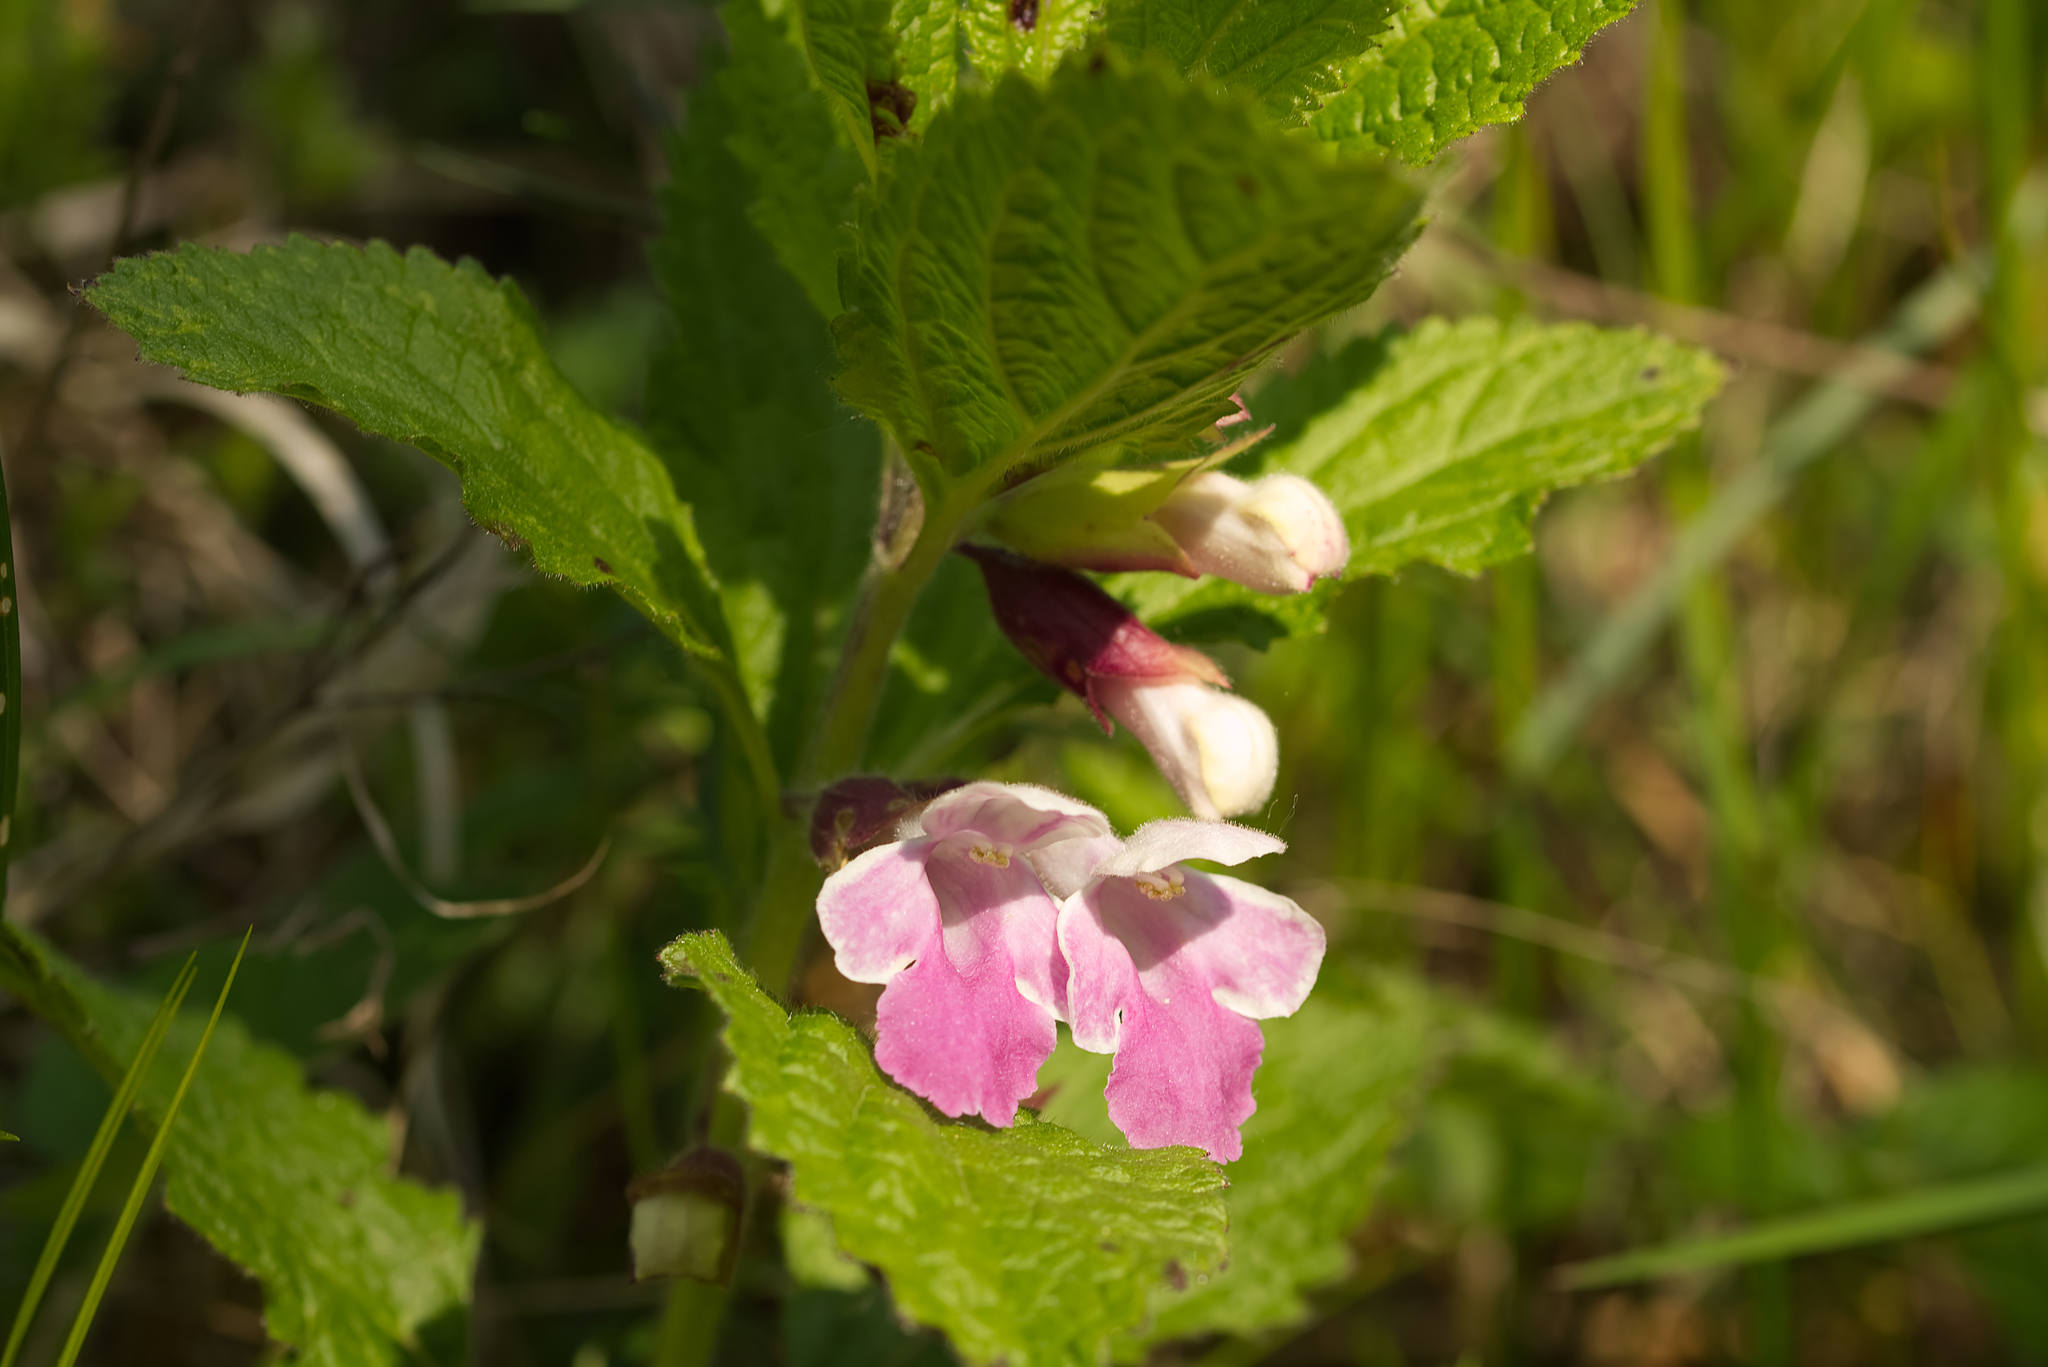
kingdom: Plantae
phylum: Tracheophyta
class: Magnoliopsida
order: Lamiales
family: Lamiaceae
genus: Melittis
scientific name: Melittis melissophyllum
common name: Bastard balm
